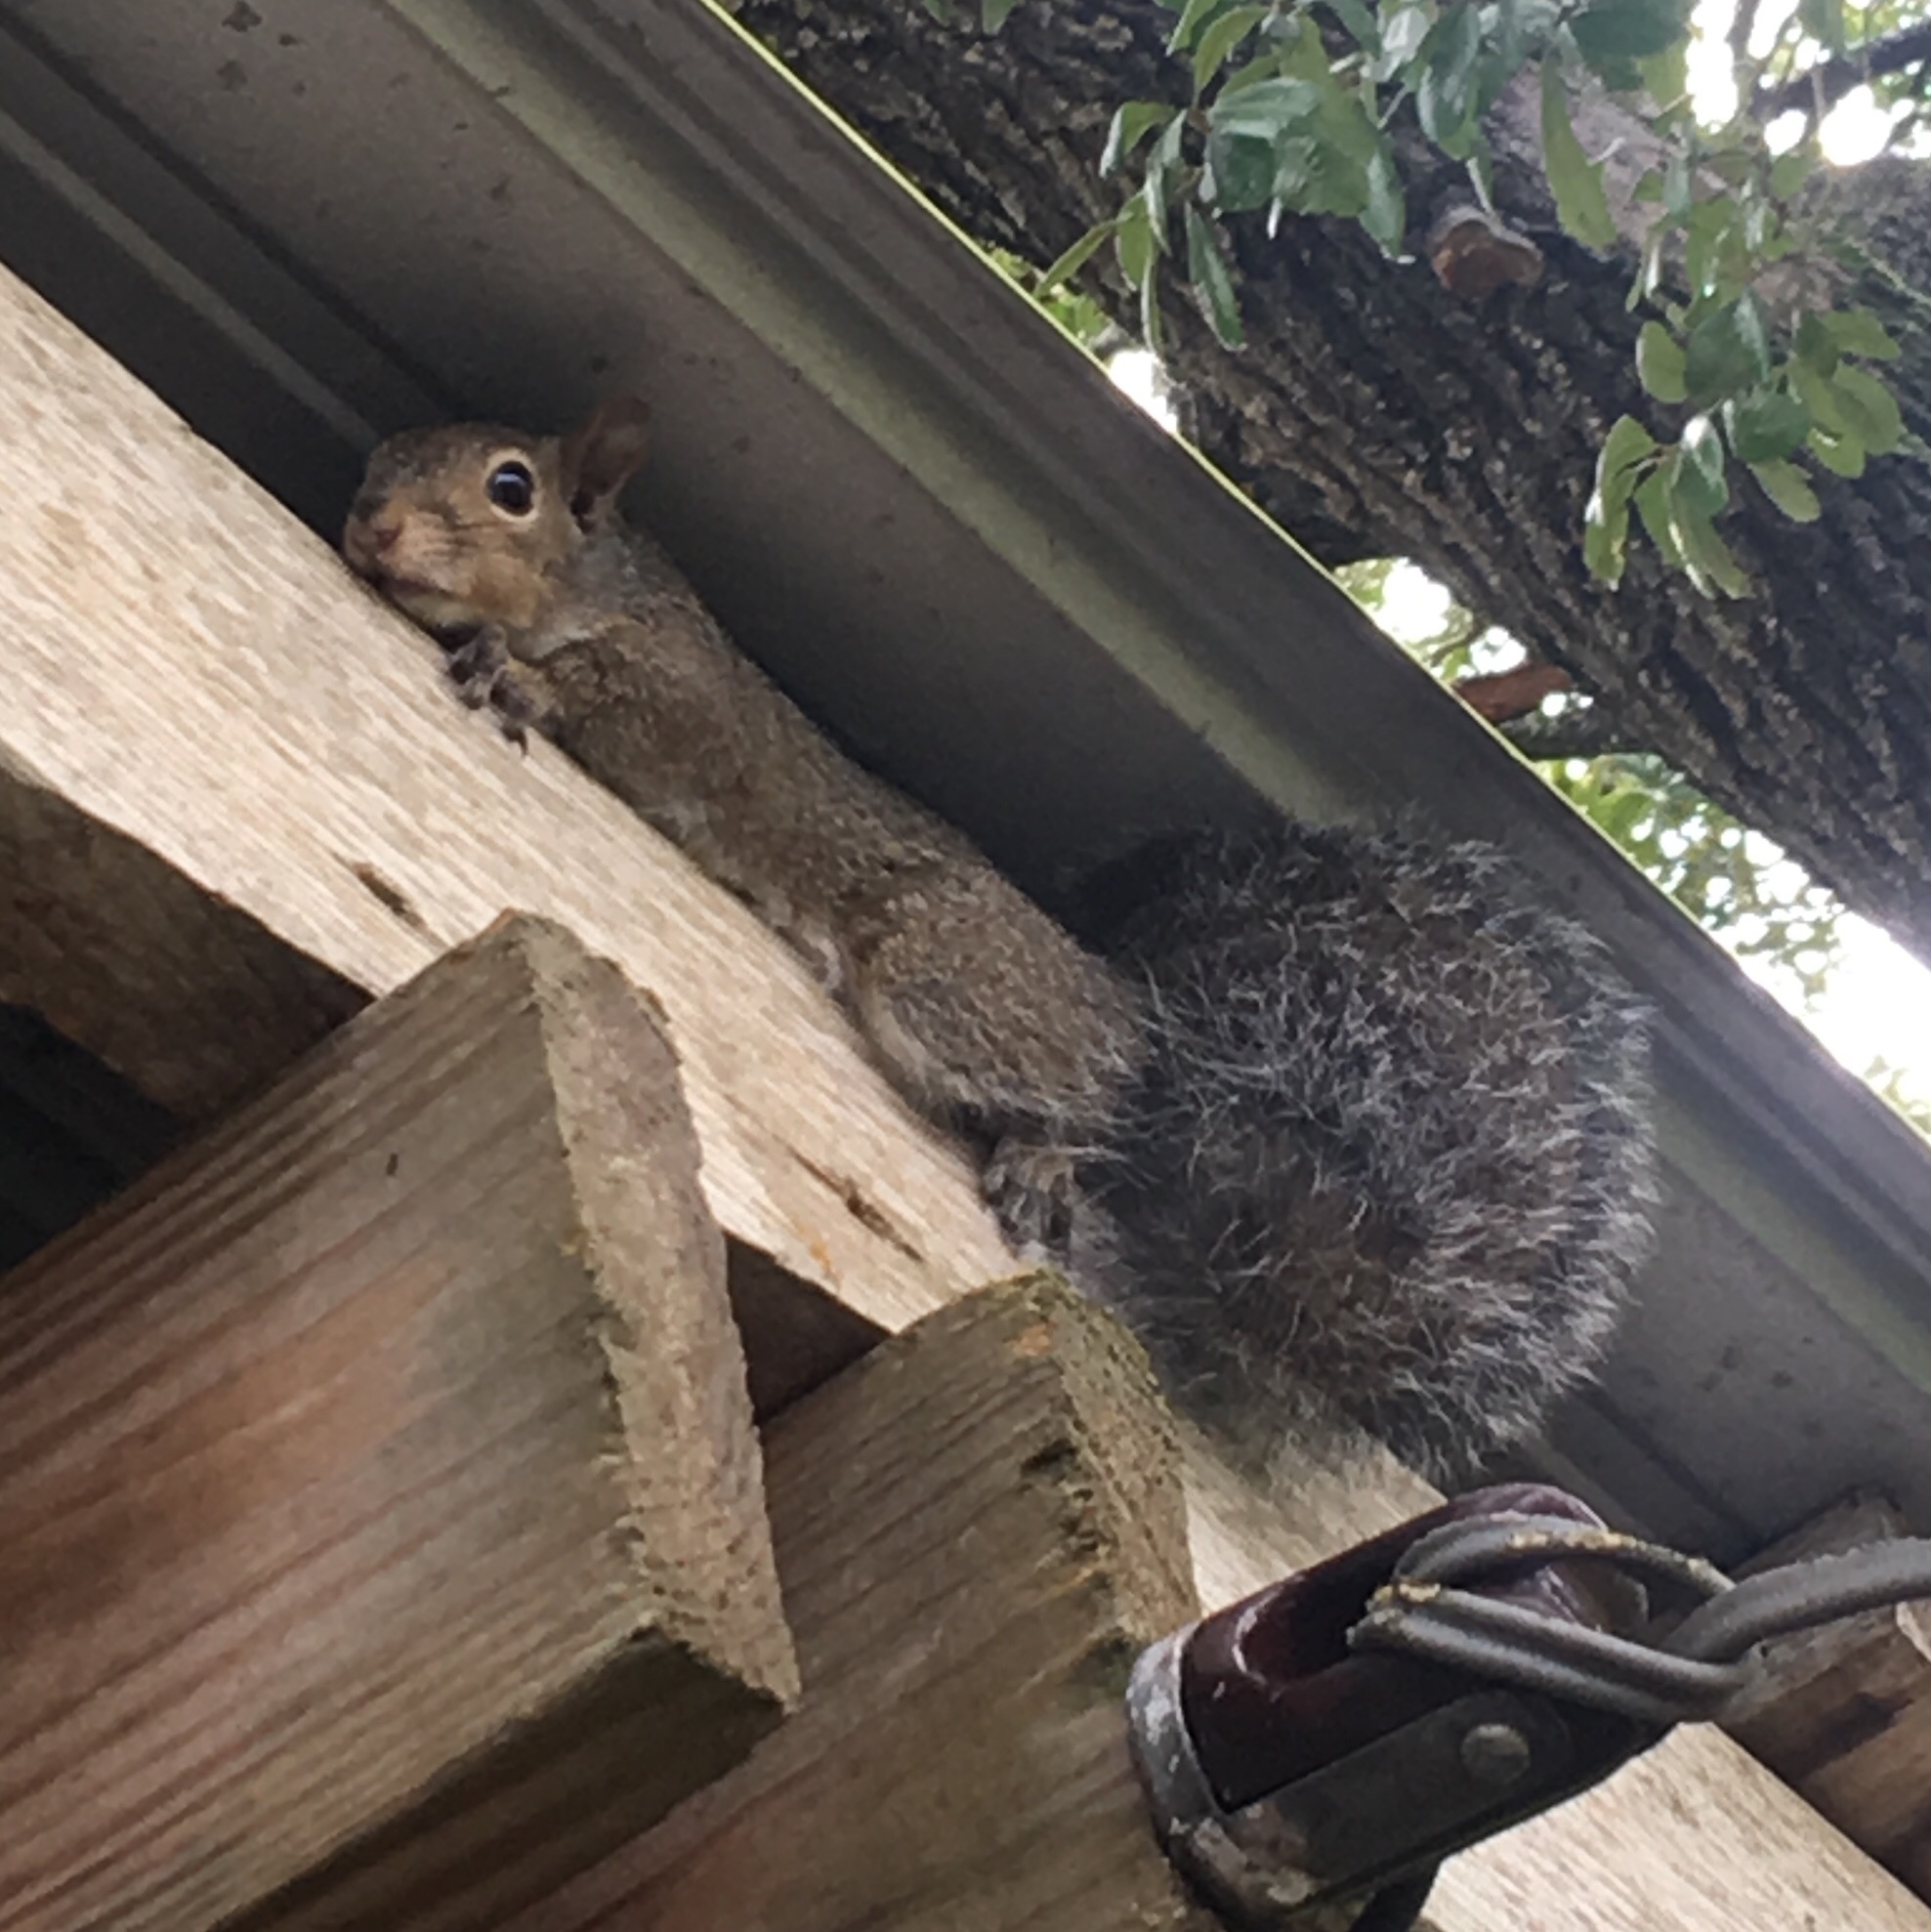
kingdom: Animalia
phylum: Chordata
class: Mammalia
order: Rodentia
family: Sciuridae
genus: Sciurus
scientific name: Sciurus carolinensis
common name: Eastern gray squirrel
